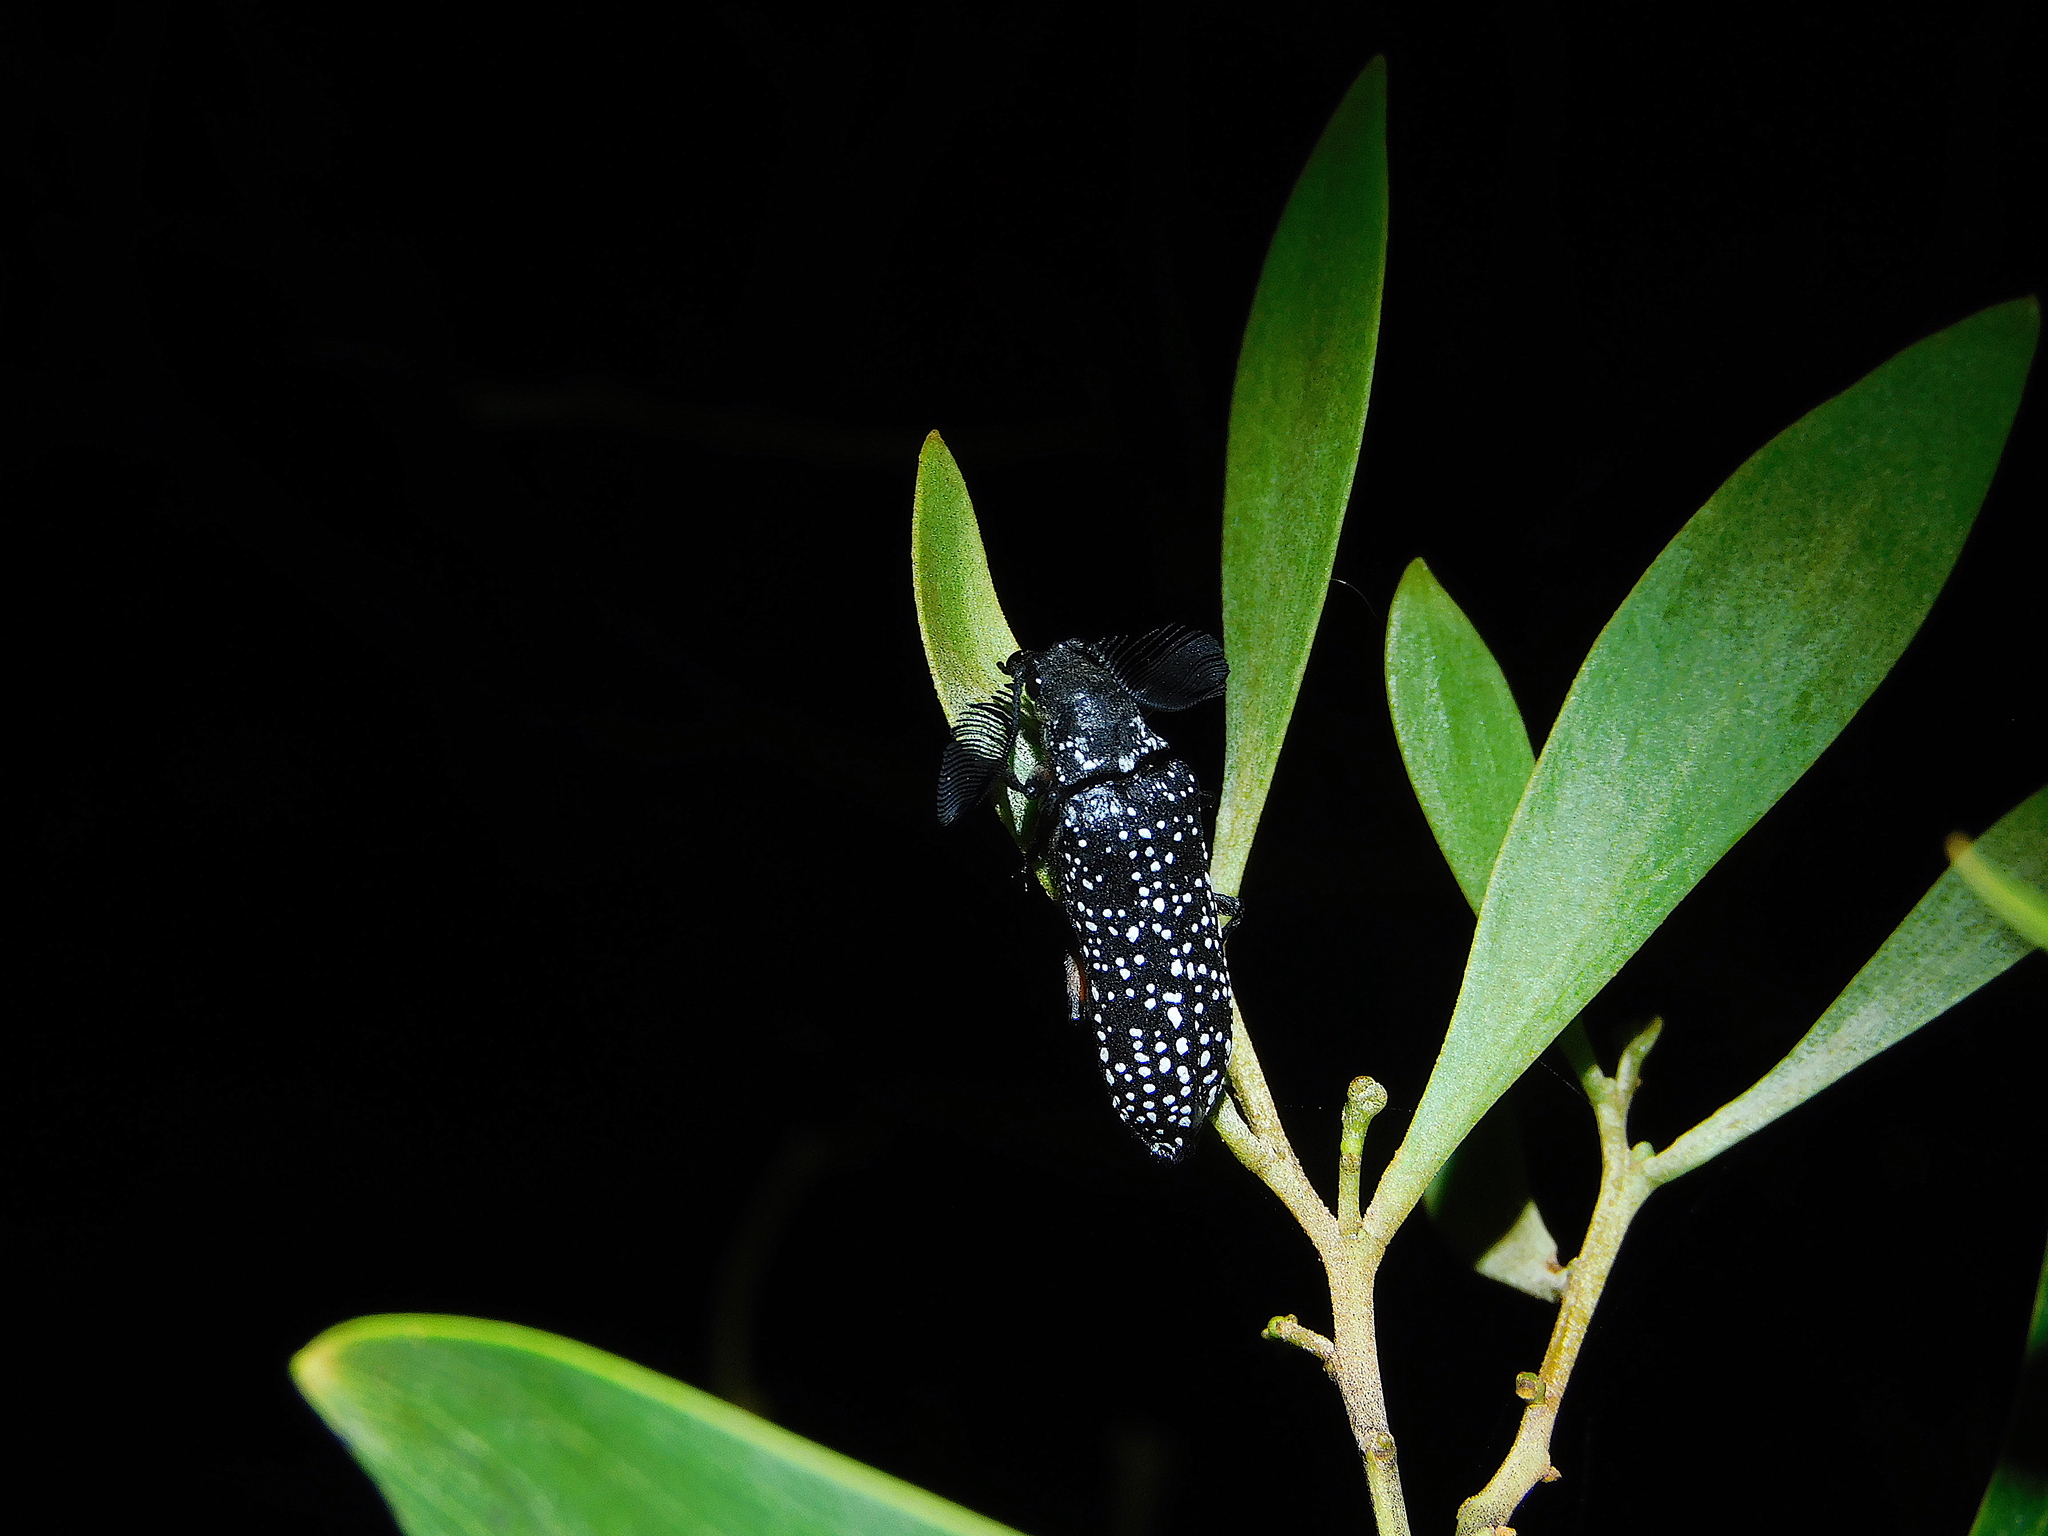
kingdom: Animalia
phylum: Arthropoda
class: Insecta
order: Coleoptera
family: Rhipiceridae
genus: Rhipicera
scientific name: Rhipicera femorata
